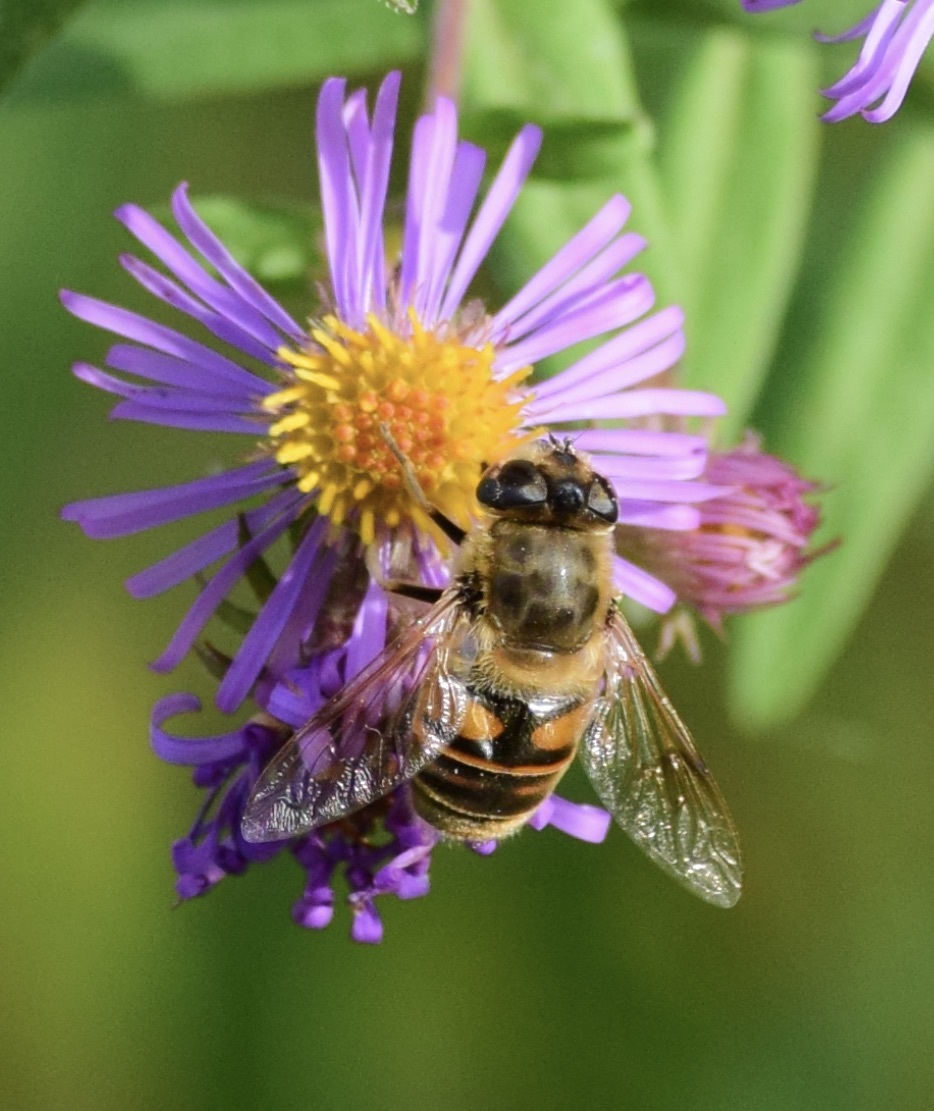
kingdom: Animalia
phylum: Arthropoda
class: Insecta
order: Diptera
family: Syrphidae
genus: Eristalis
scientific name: Eristalis tenax
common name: Drone fly
